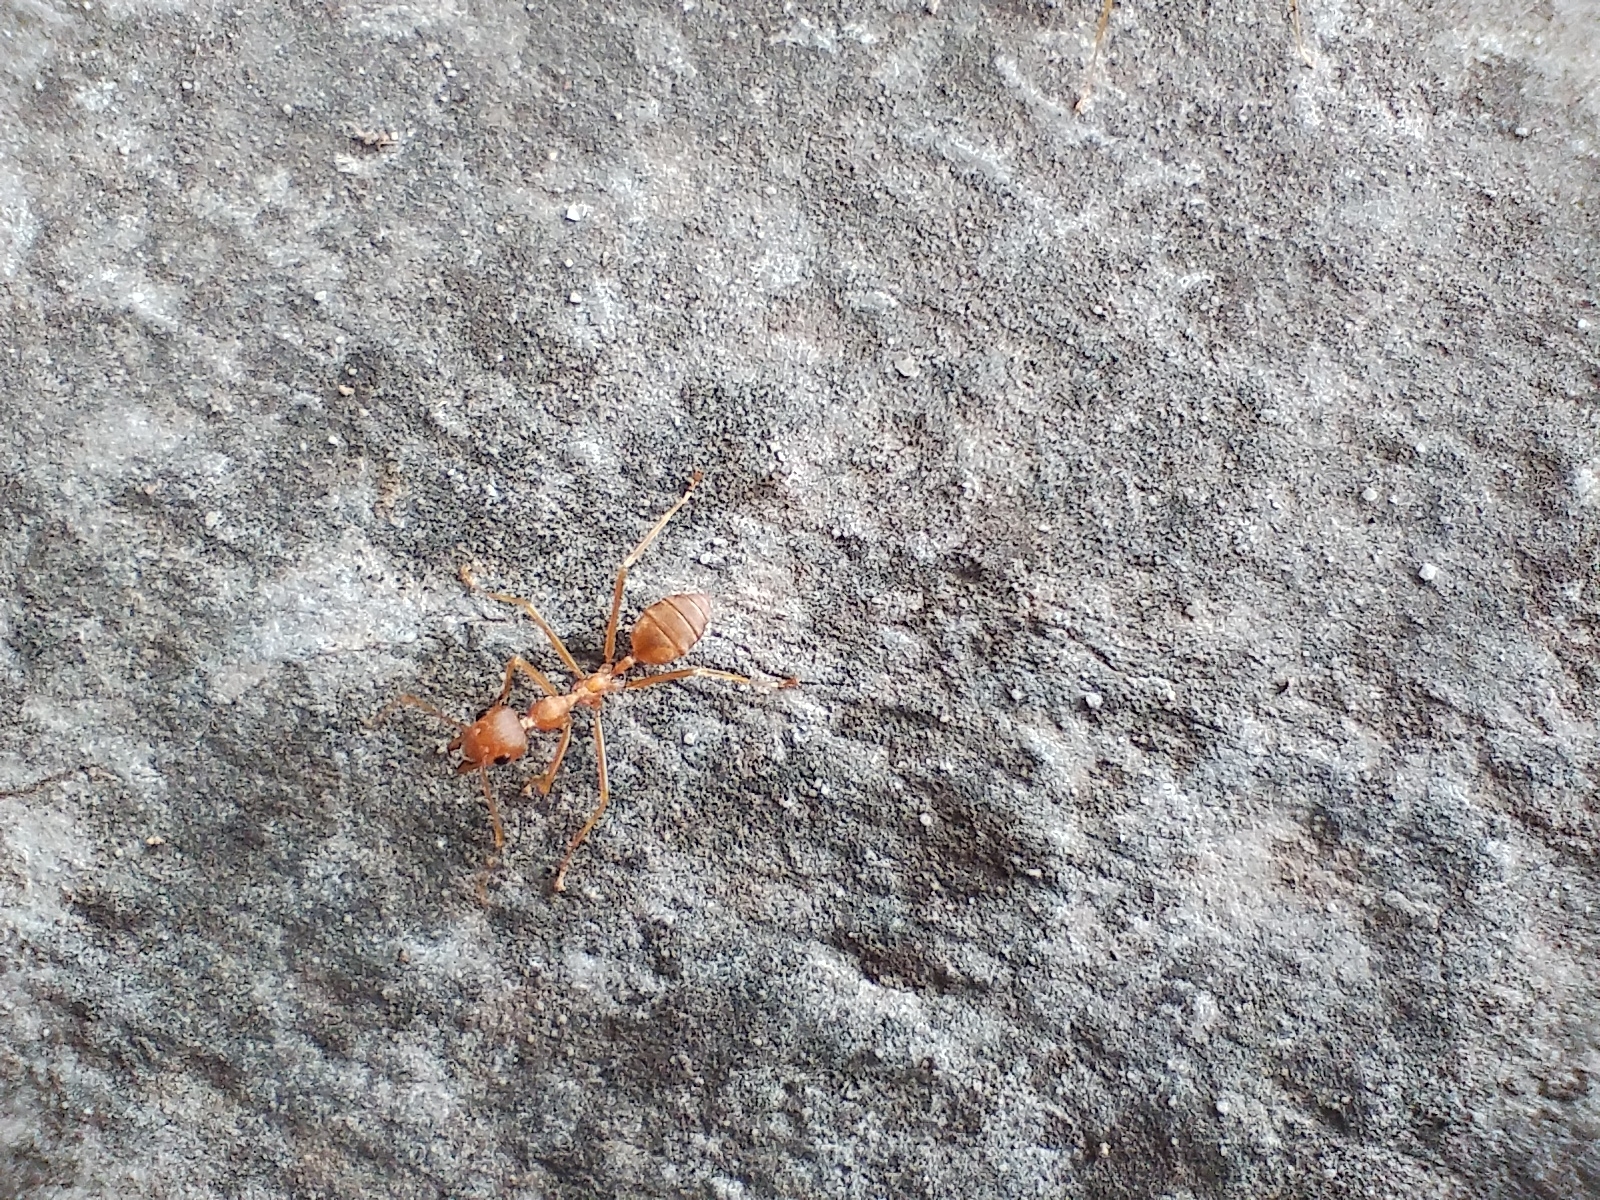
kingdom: Animalia
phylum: Arthropoda
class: Insecta
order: Hymenoptera
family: Formicidae
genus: Oecophylla
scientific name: Oecophylla smaragdina
